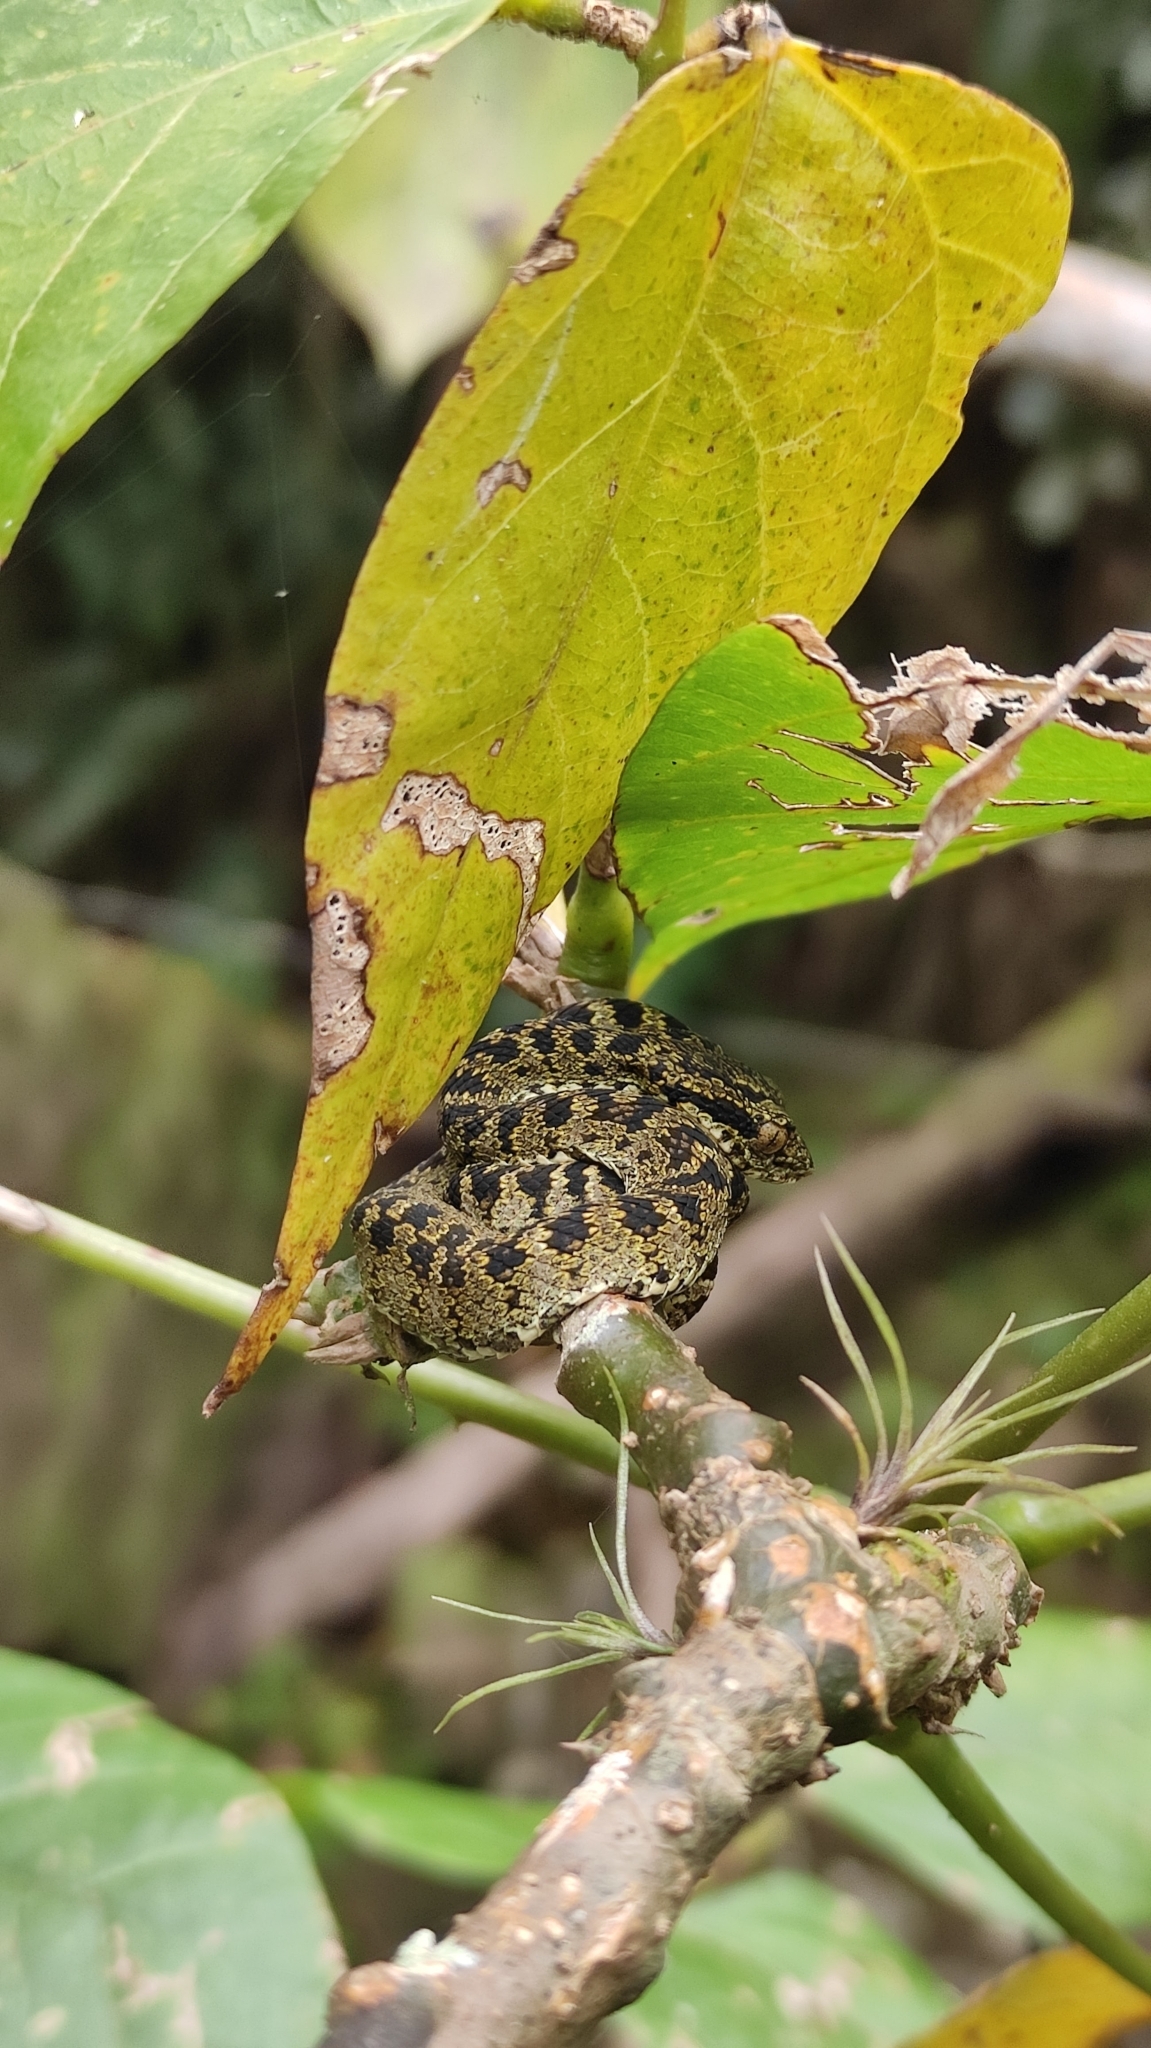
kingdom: Animalia
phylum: Chordata
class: Squamata
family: Viperidae
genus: Bothriechis
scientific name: Bothriechis schlegelii
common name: Eyelash viper
